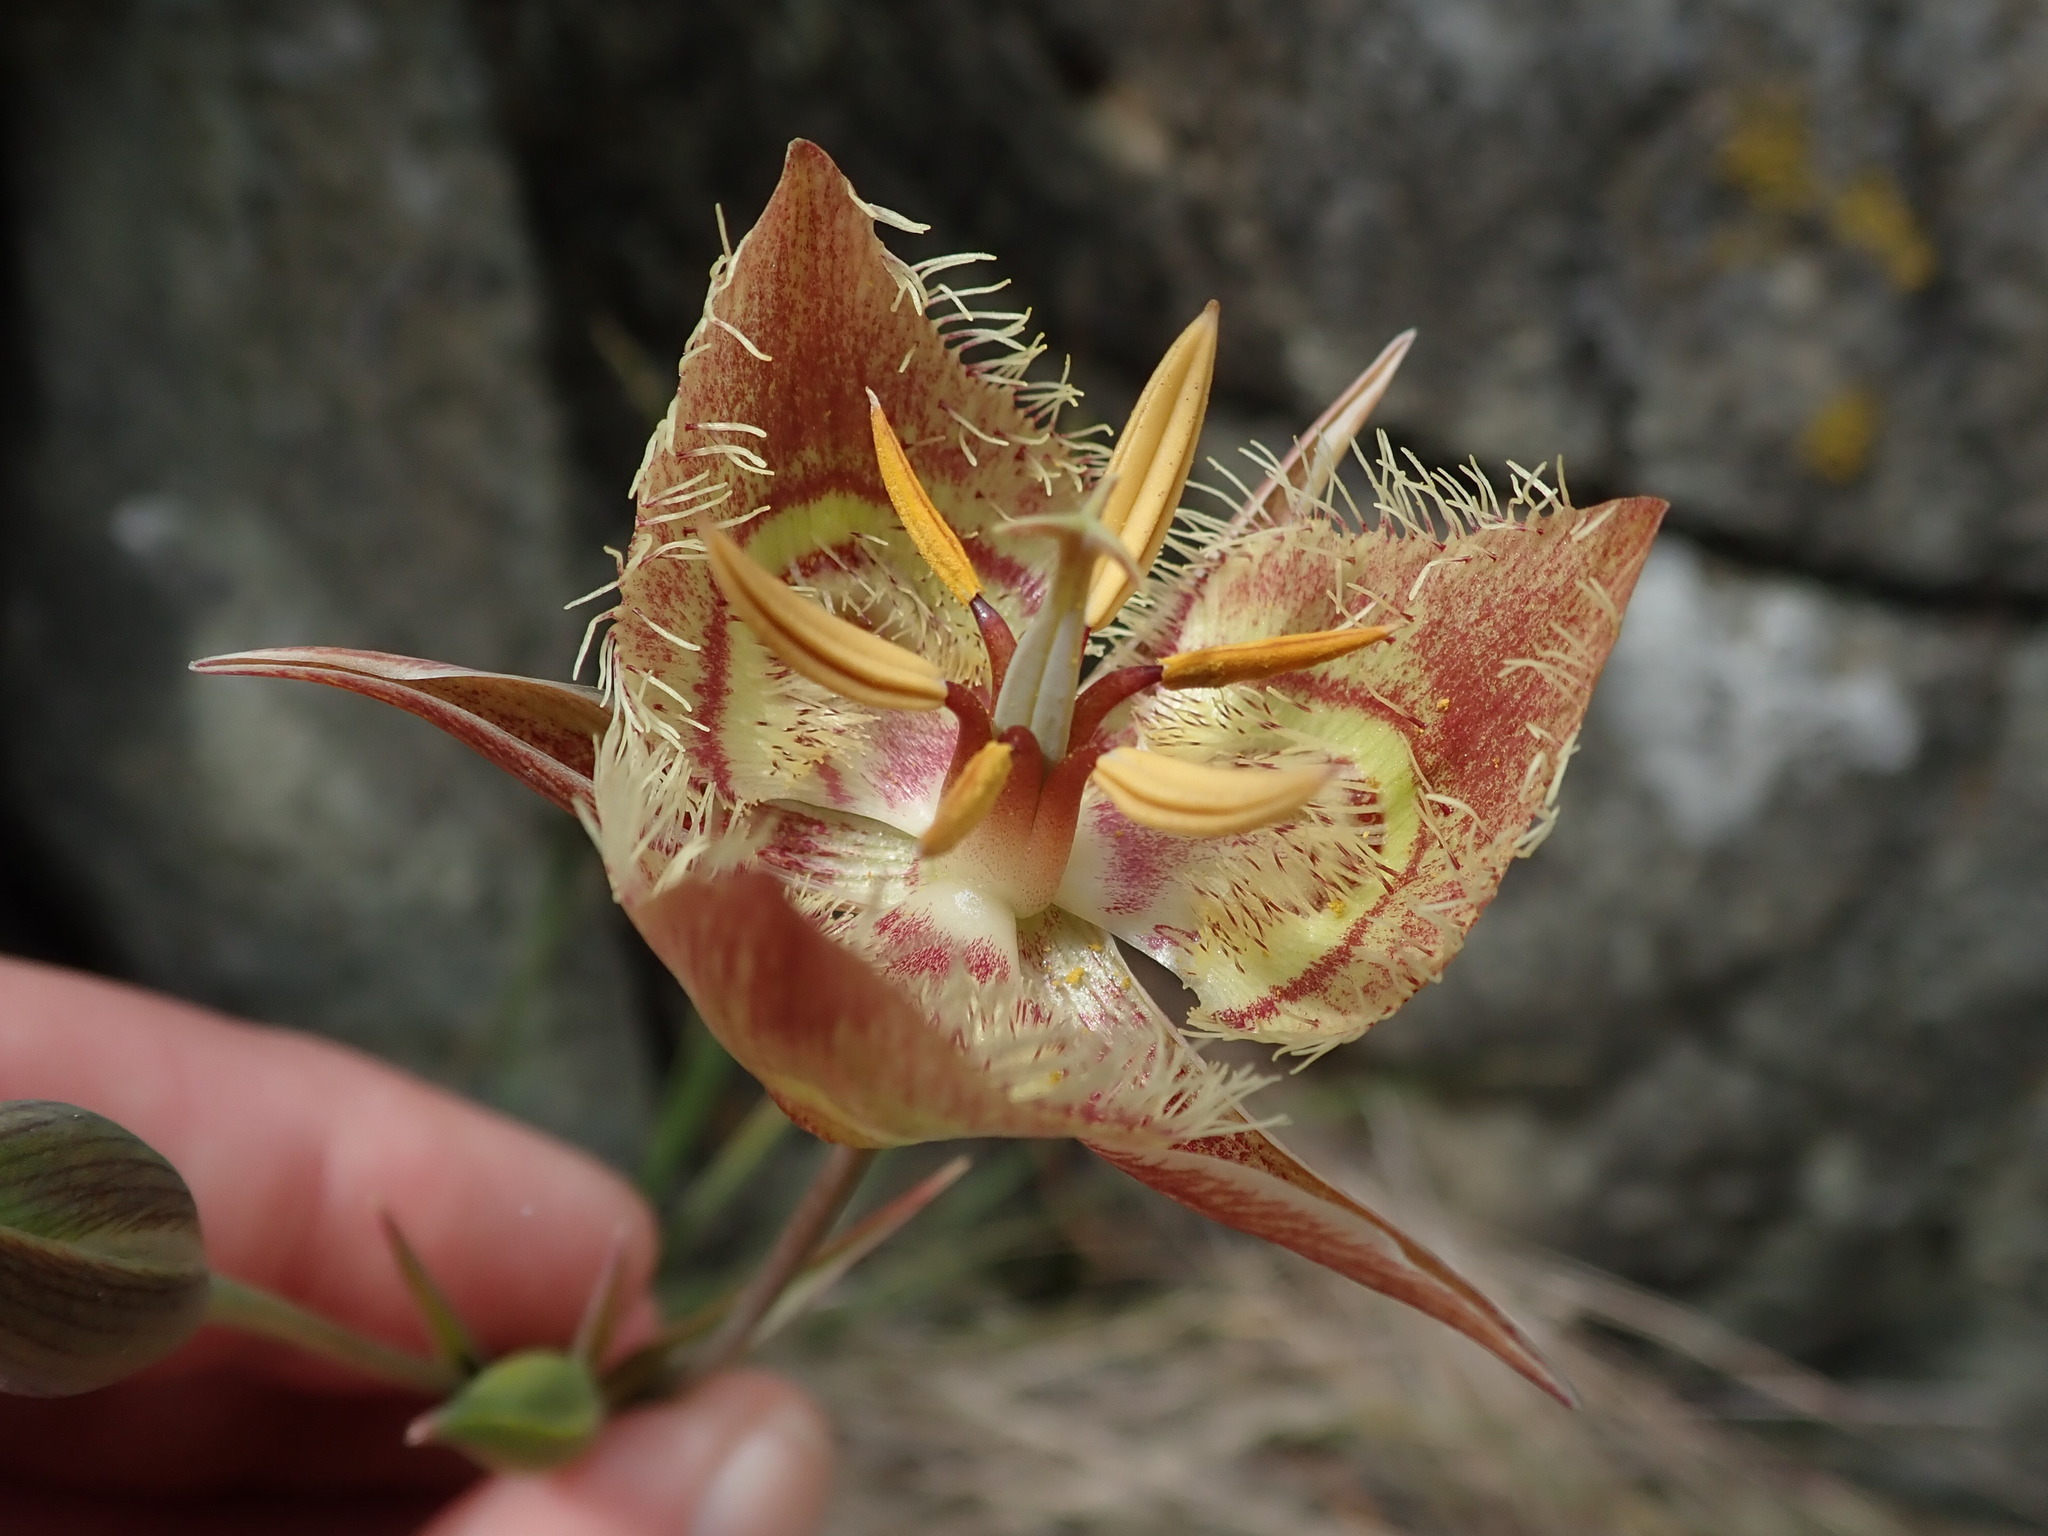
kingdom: Plantae
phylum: Tracheophyta
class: Liliopsida
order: Liliales
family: Liliaceae
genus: Calochortus
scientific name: Calochortus tiburonensis
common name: Tiburon mariposa-lily
